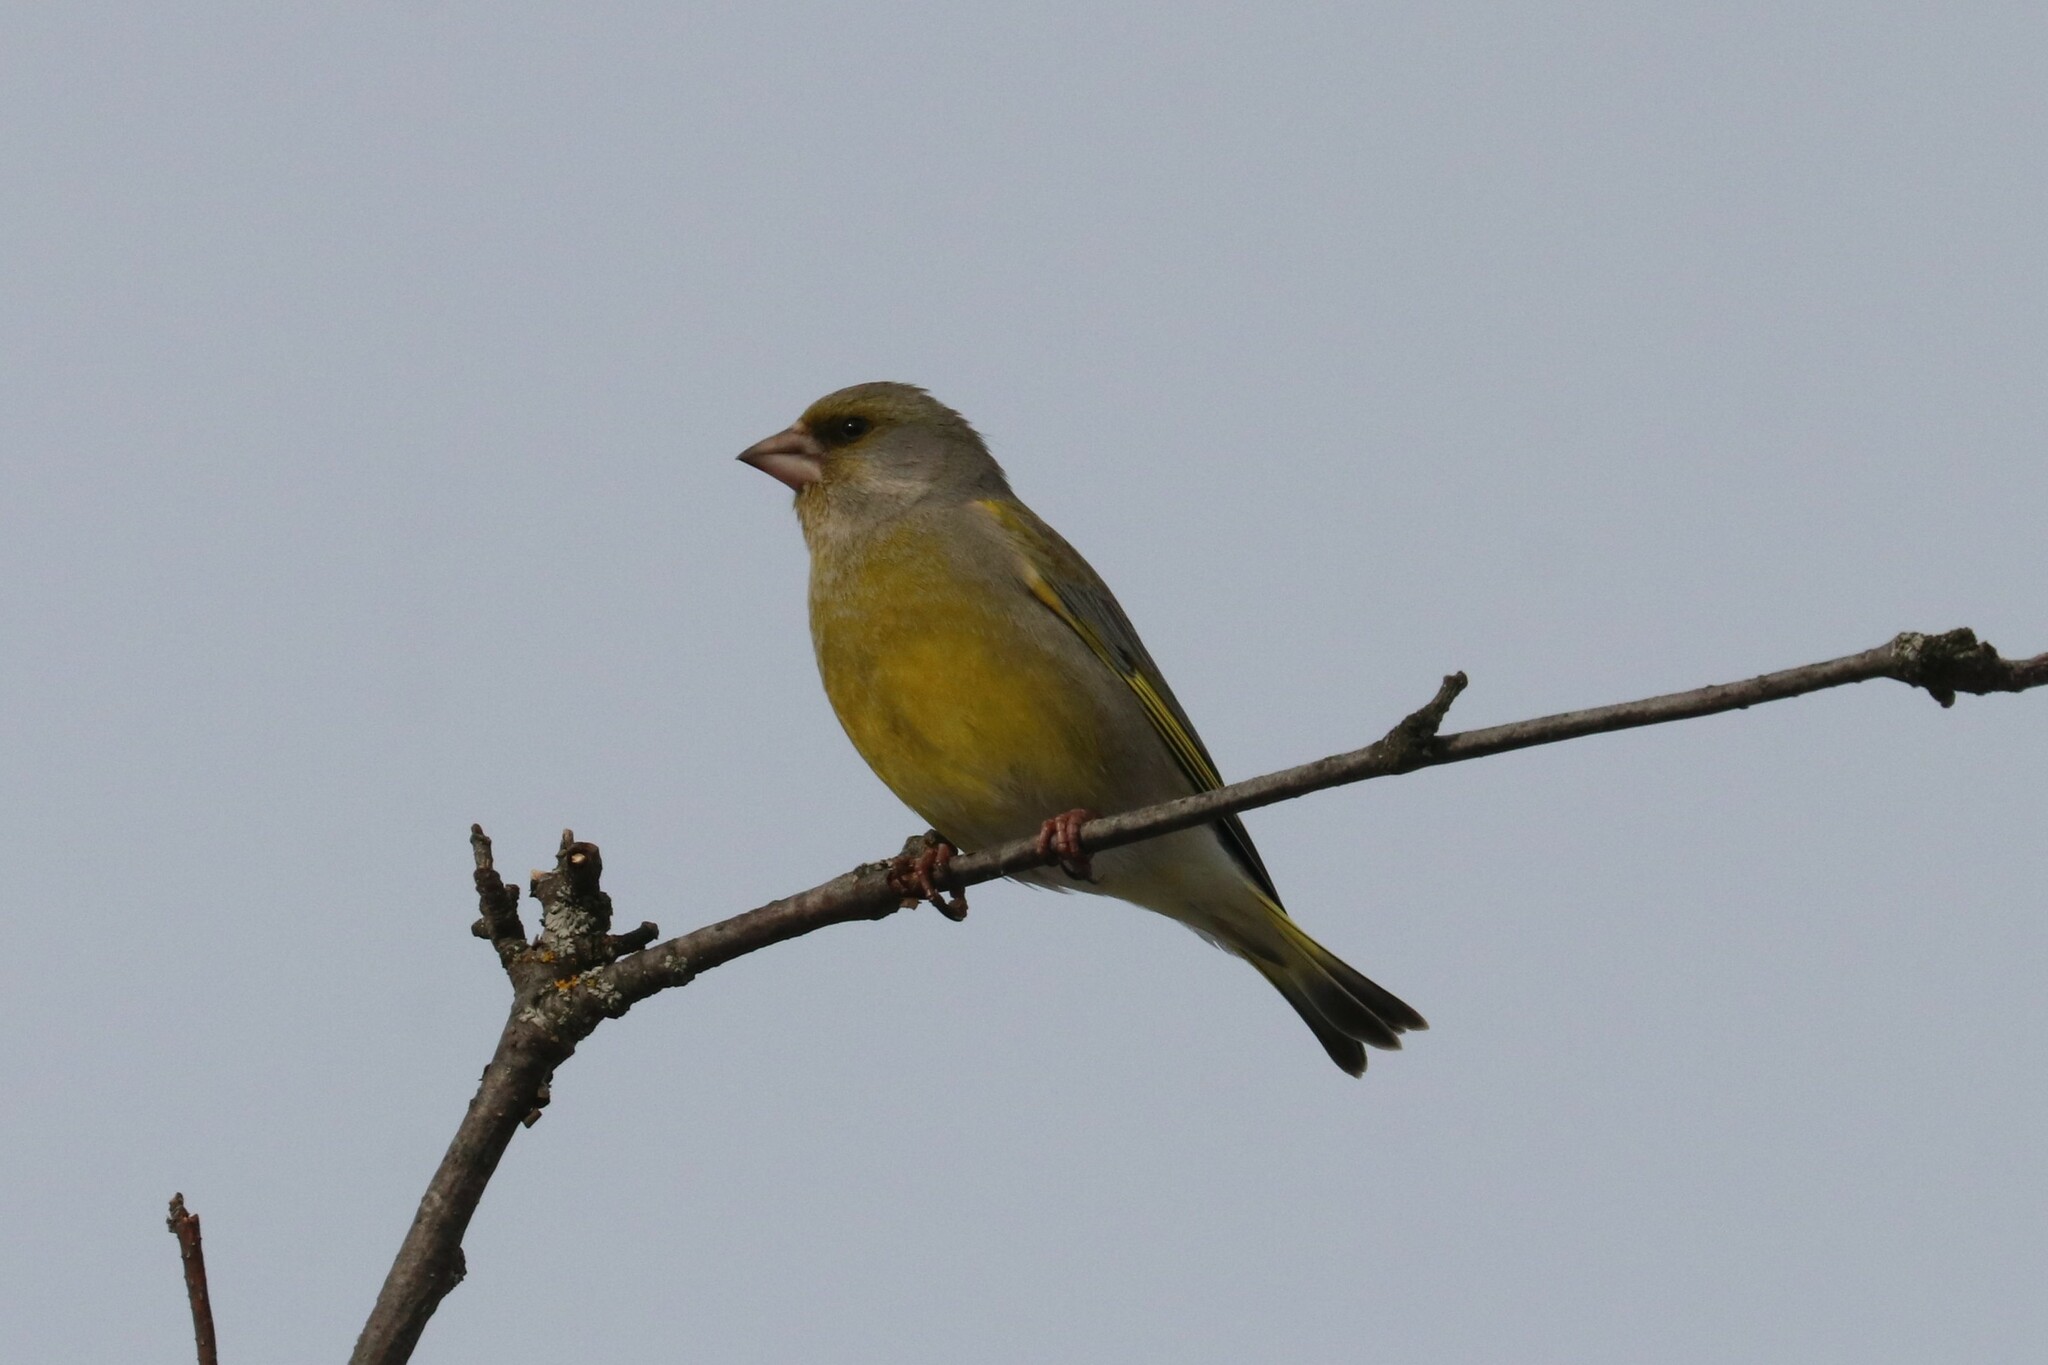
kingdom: Plantae
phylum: Tracheophyta
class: Liliopsida
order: Poales
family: Poaceae
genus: Chloris
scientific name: Chloris chloris
